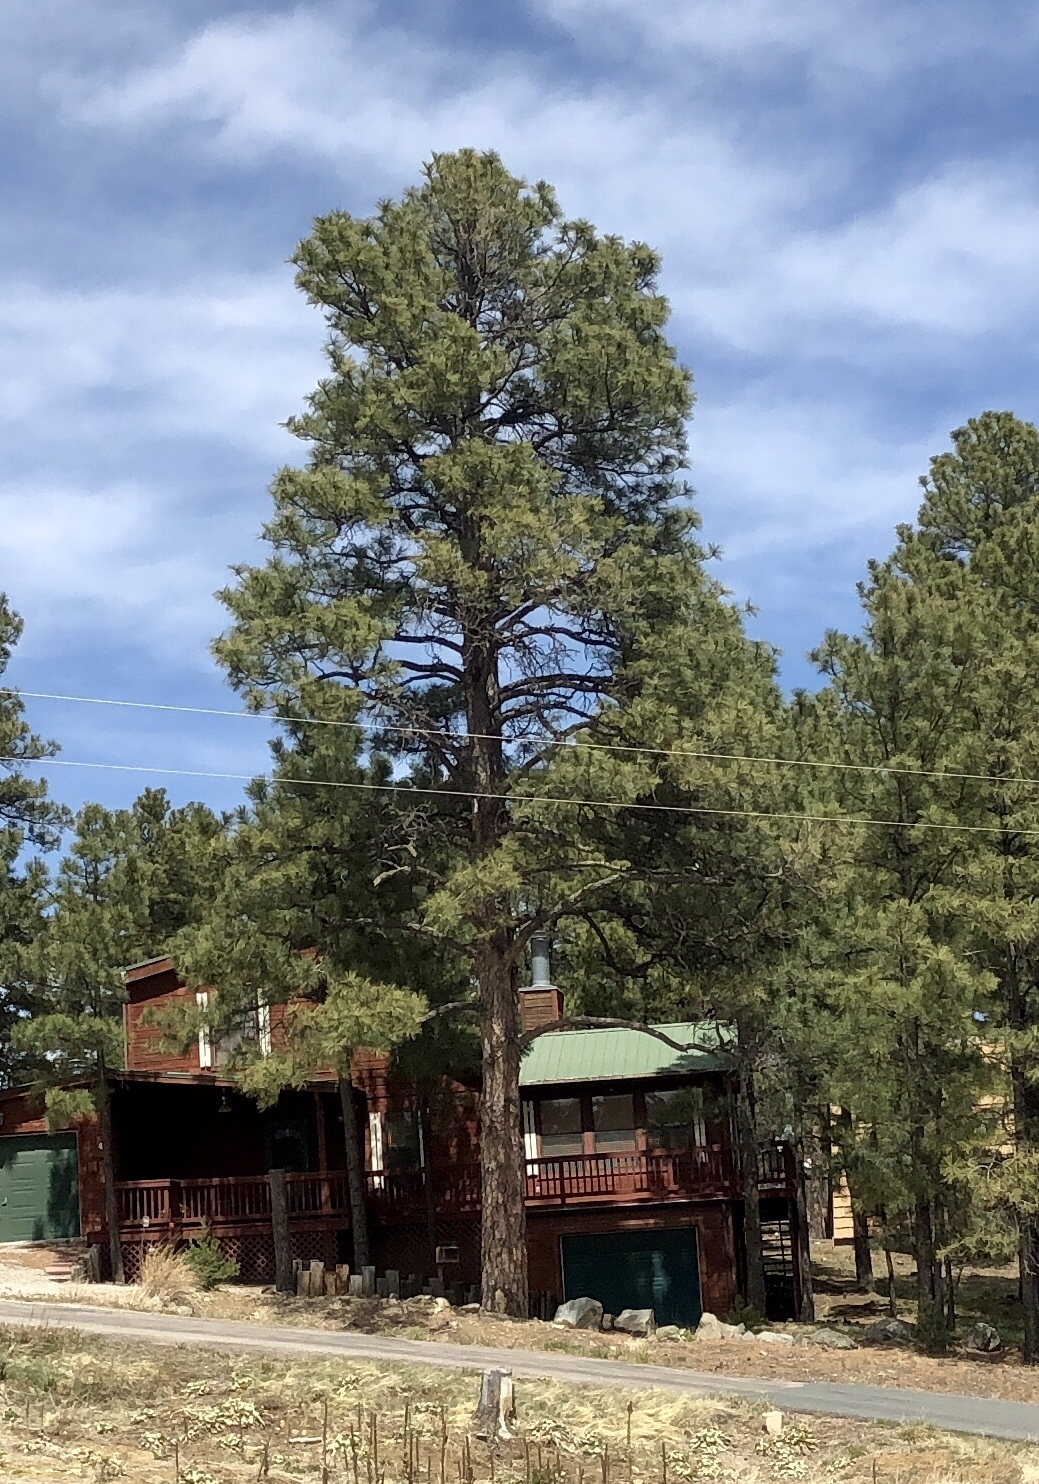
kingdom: Plantae
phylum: Tracheophyta
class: Pinopsida
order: Pinales
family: Pinaceae
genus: Pinus
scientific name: Pinus ponderosa
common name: Western yellow-pine
